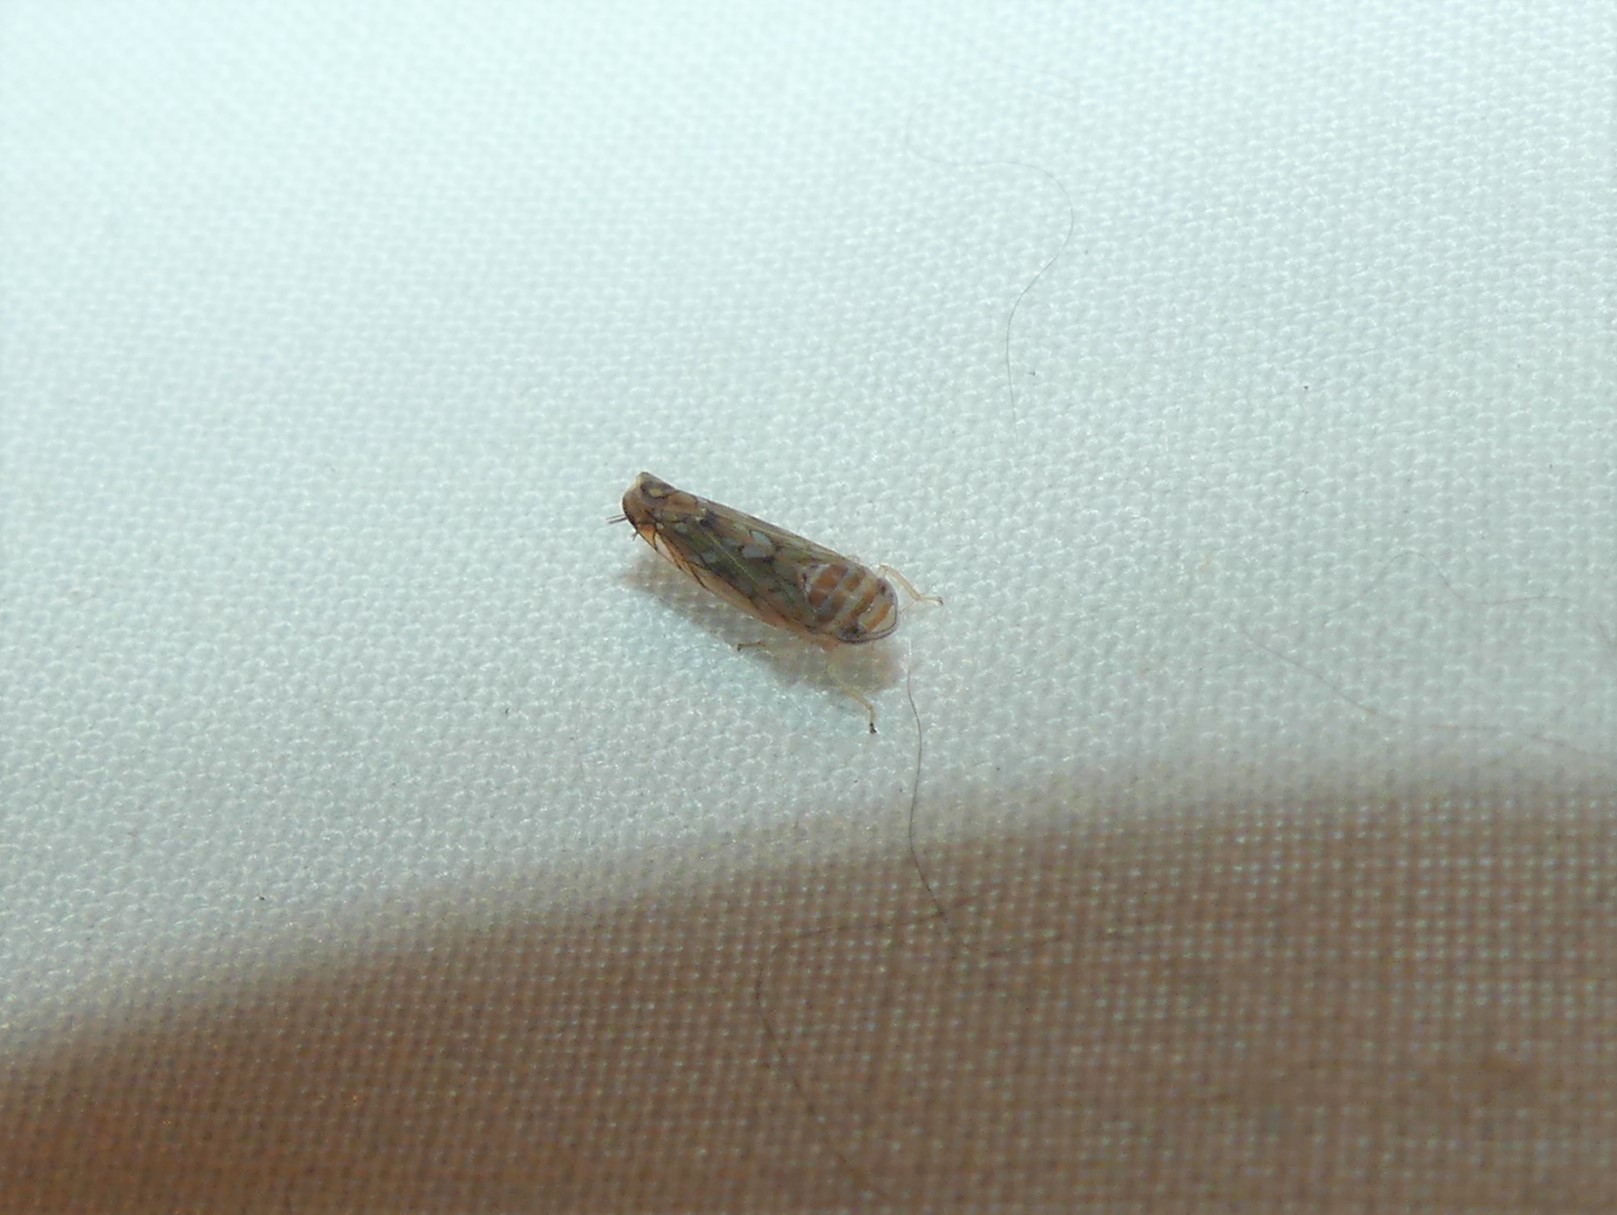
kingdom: Animalia
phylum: Arthropoda
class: Insecta
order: Hemiptera
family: Cicadellidae
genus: Scaphoideus
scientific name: Scaphoideus crassus
